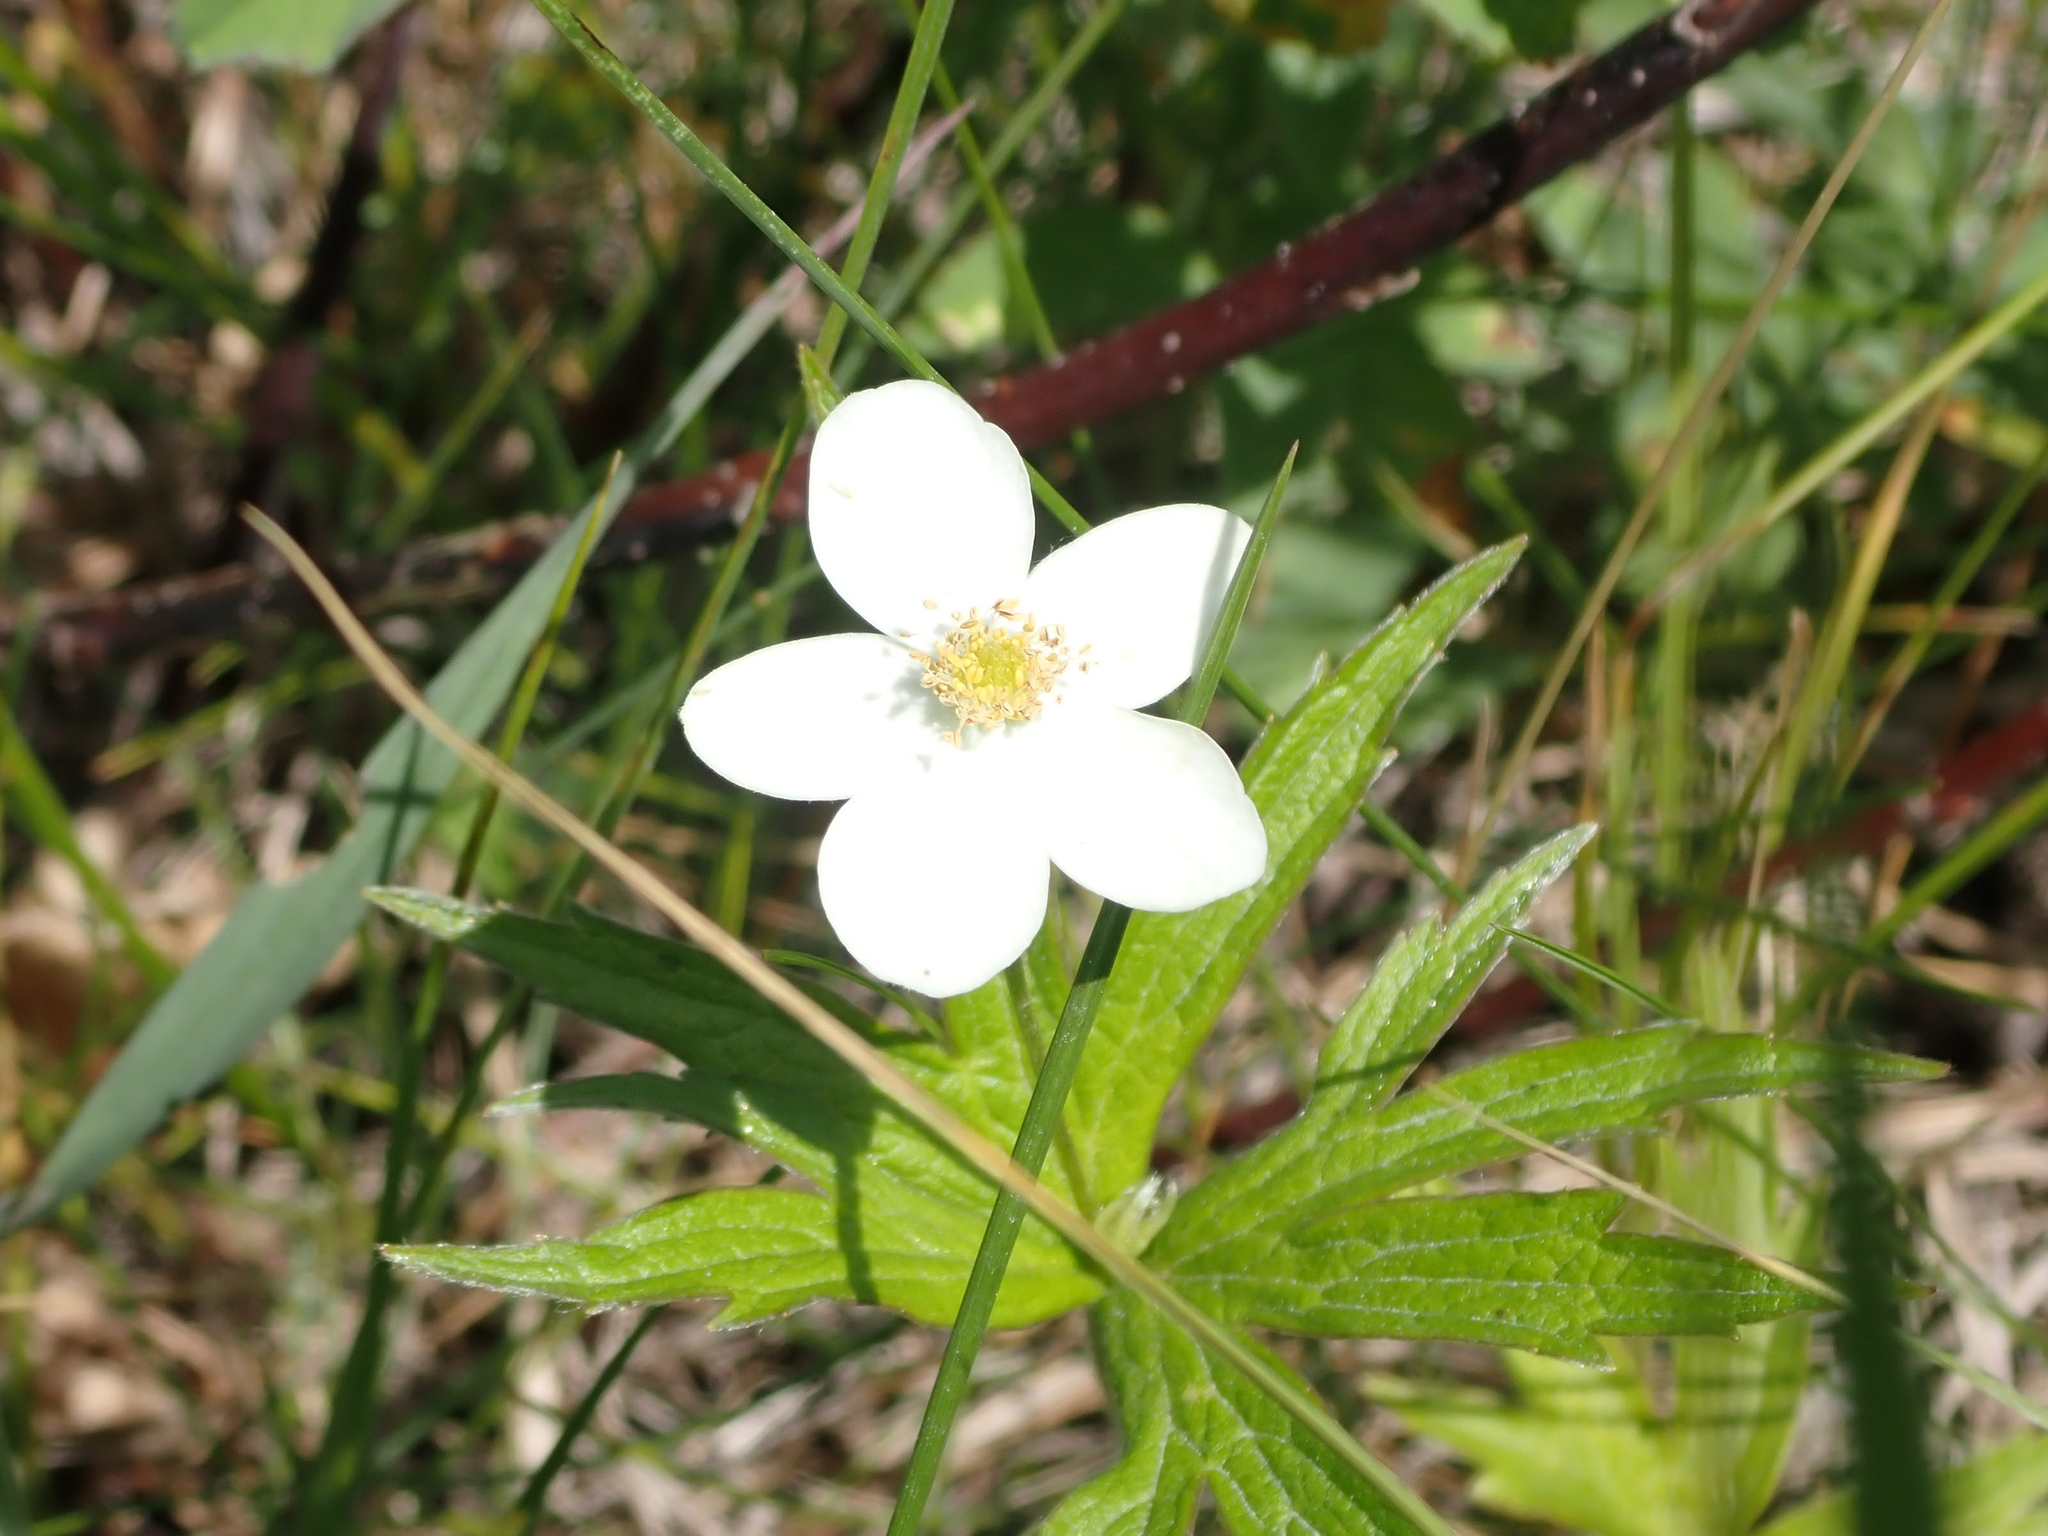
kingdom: Plantae
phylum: Tracheophyta
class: Magnoliopsida
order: Ranunculales
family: Ranunculaceae
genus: Anemonastrum
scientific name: Anemonastrum canadense
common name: Canada anemone
